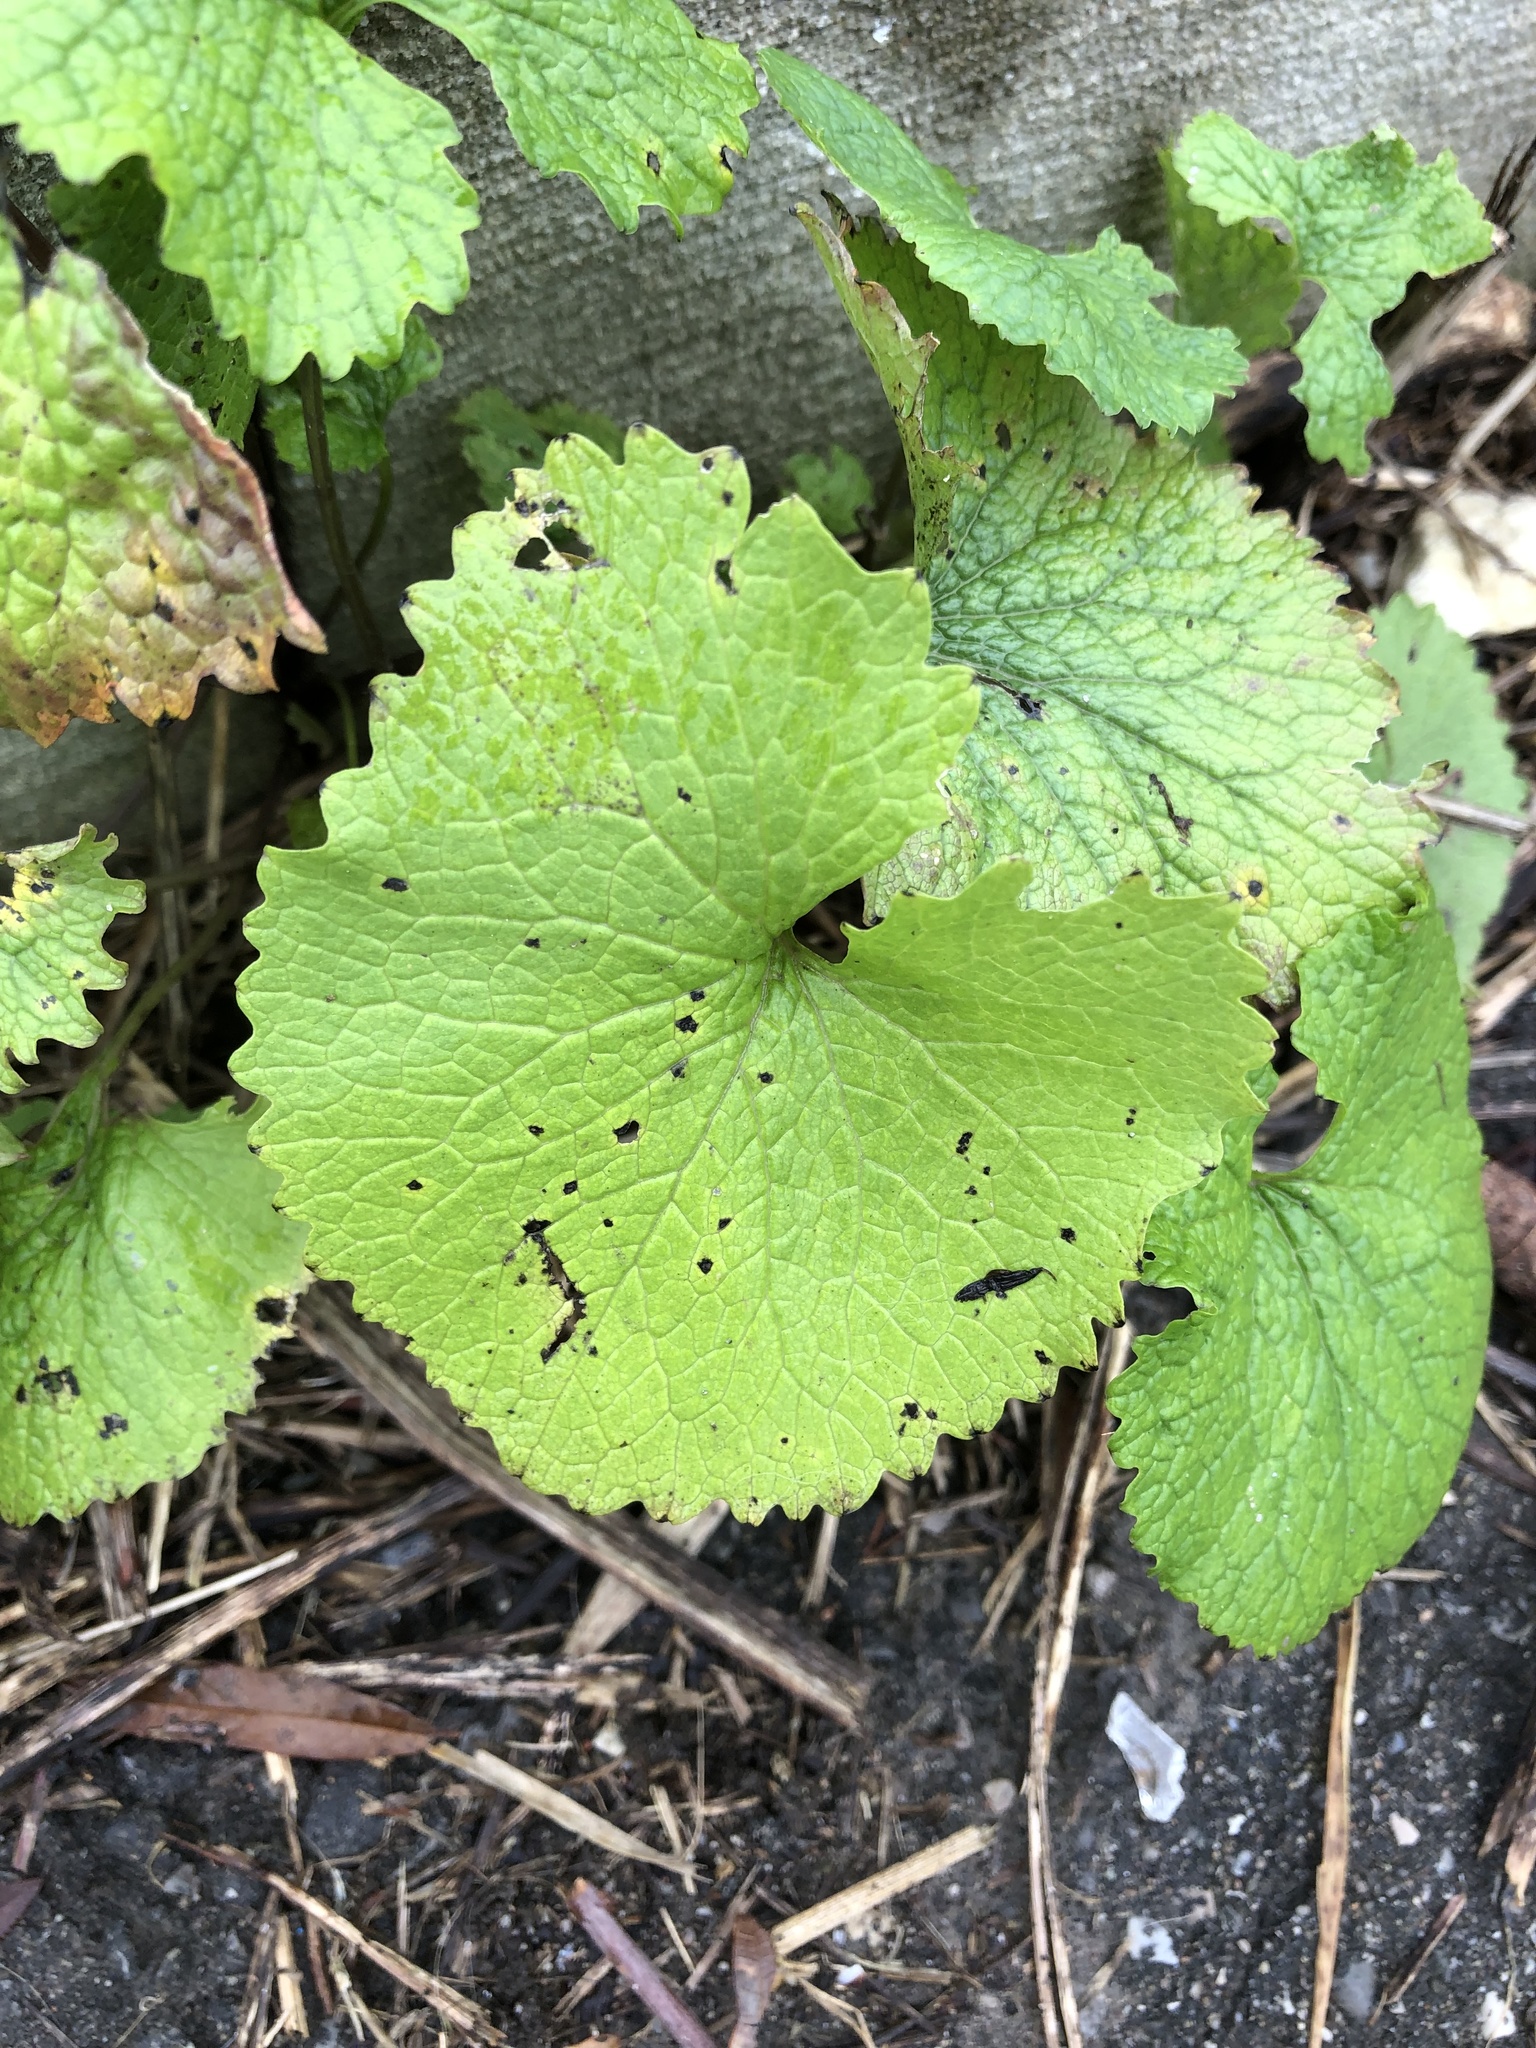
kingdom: Plantae
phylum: Tracheophyta
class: Magnoliopsida
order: Brassicales
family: Brassicaceae
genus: Alliaria
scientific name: Alliaria petiolata
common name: Garlic mustard
